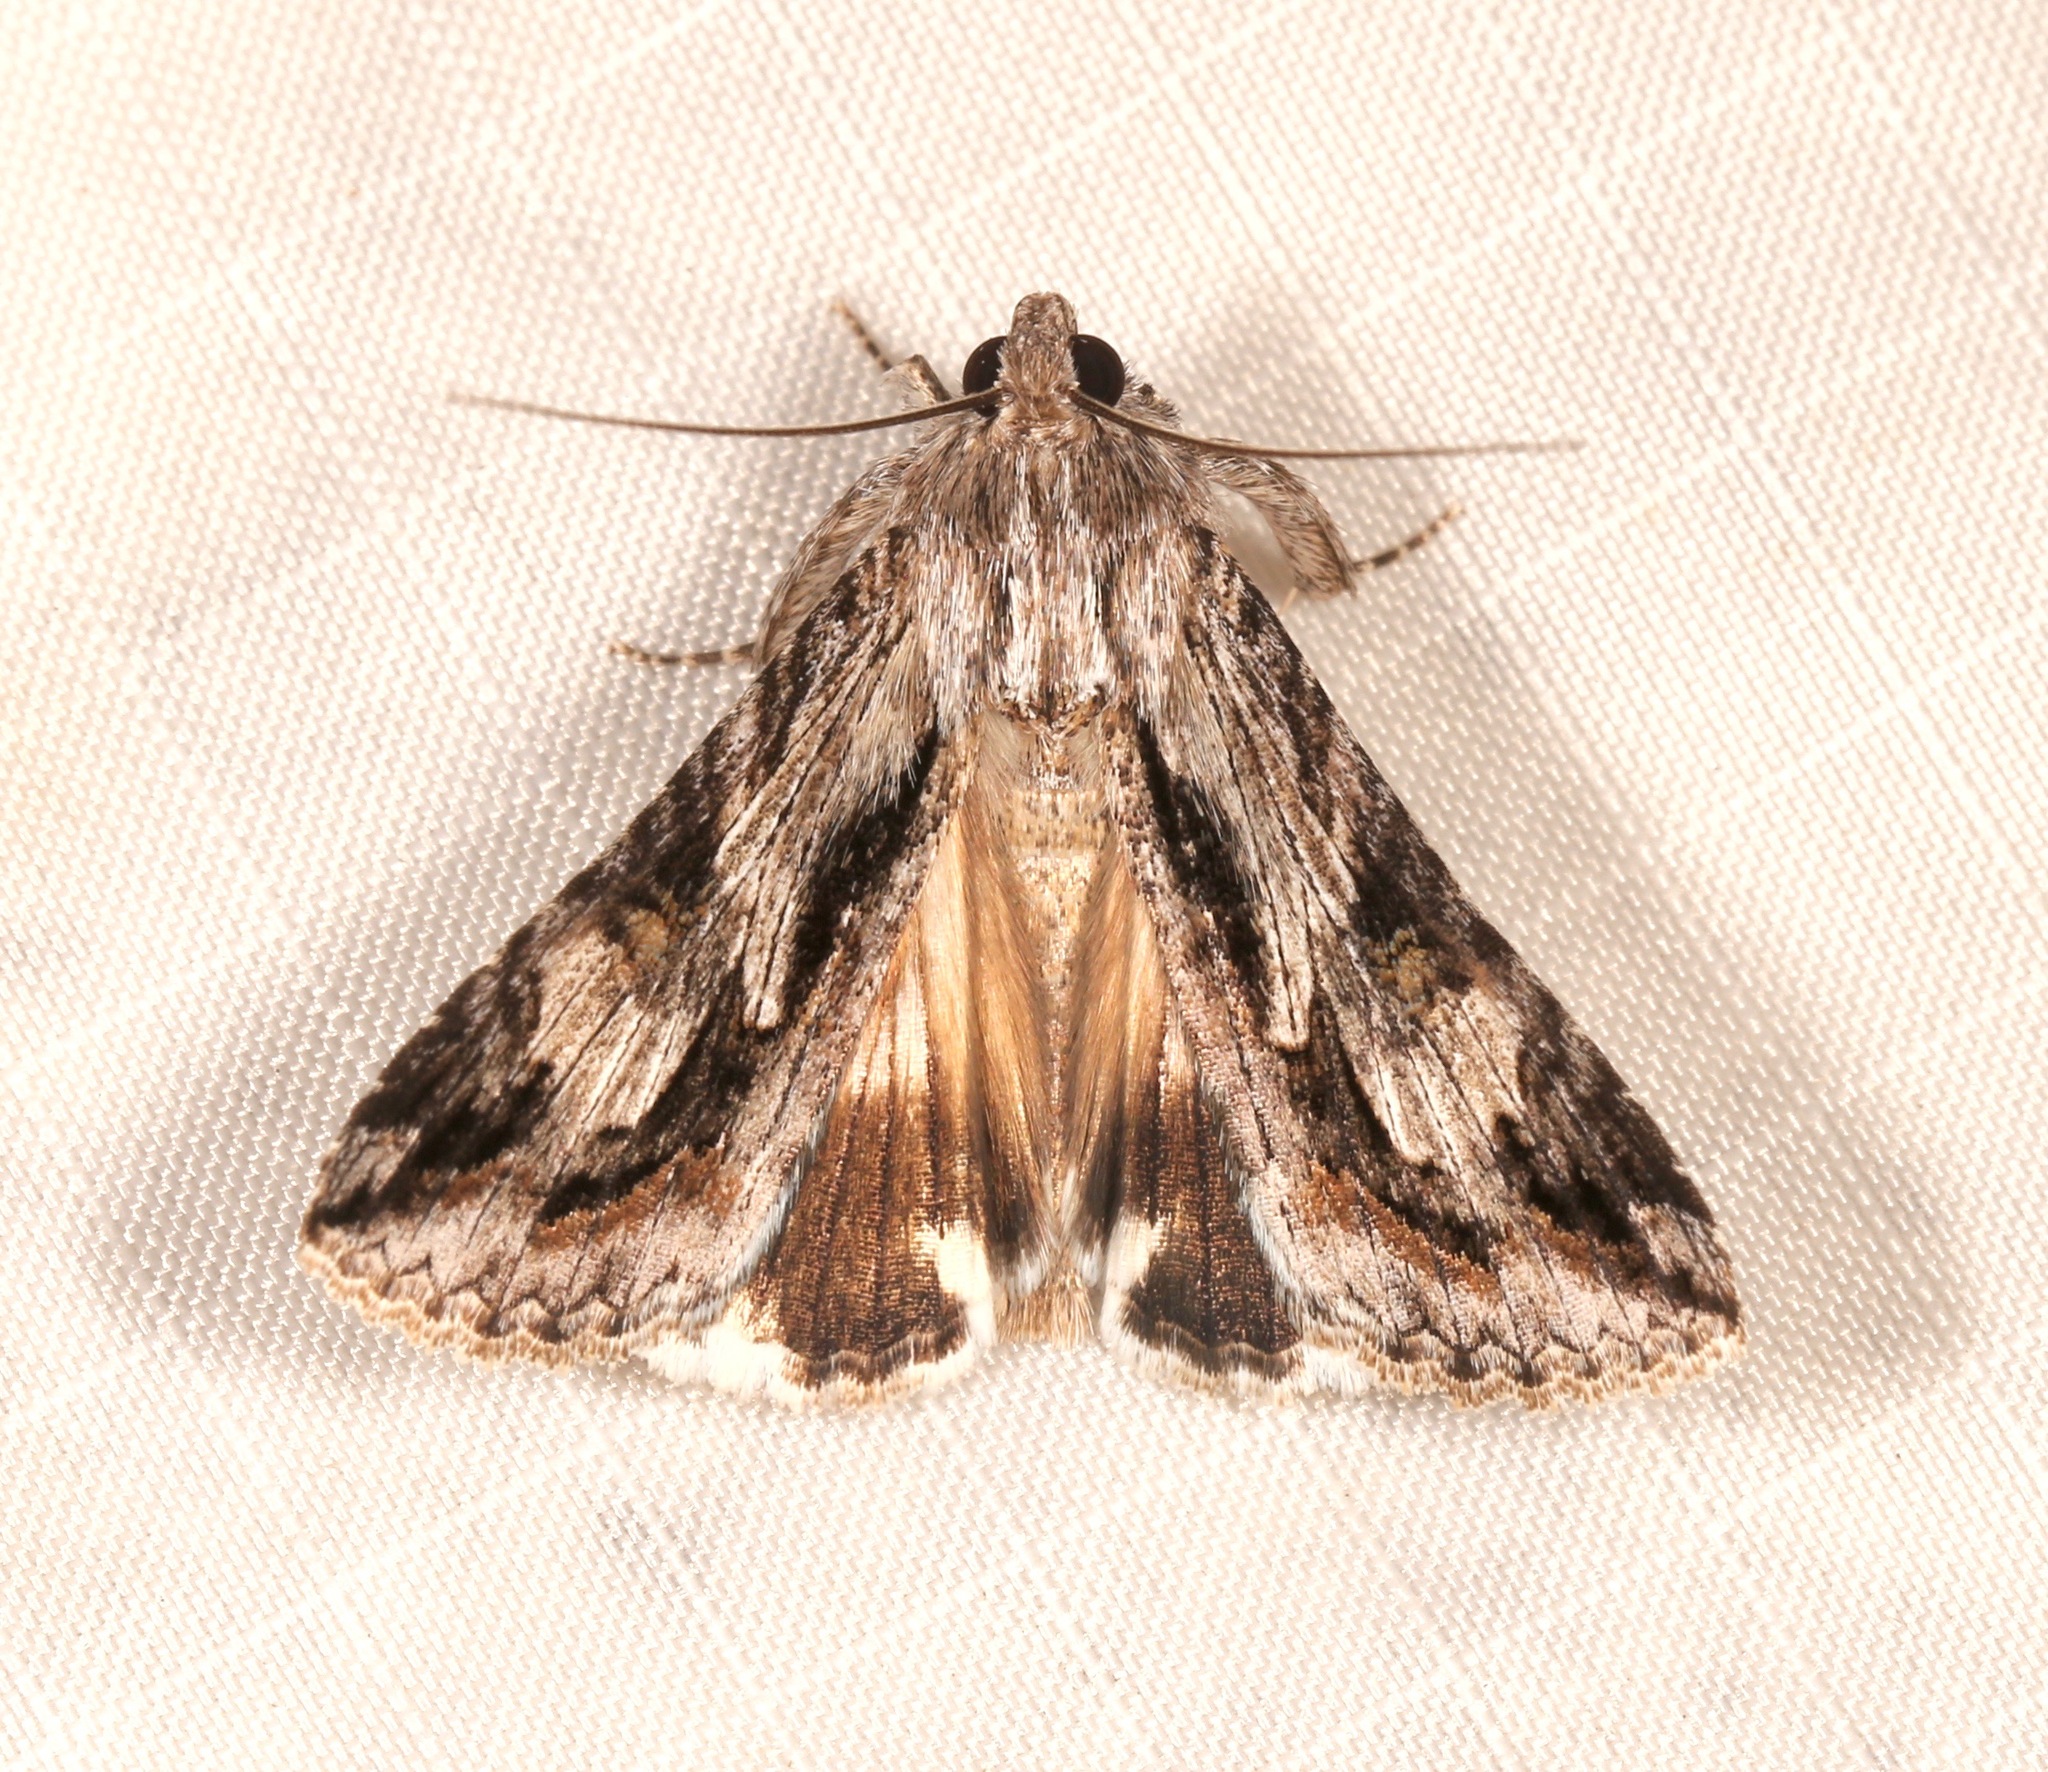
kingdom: Animalia
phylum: Arthropoda
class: Insecta
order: Lepidoptera
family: Erebidae
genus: Melipotis
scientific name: Melipotis jucunda
